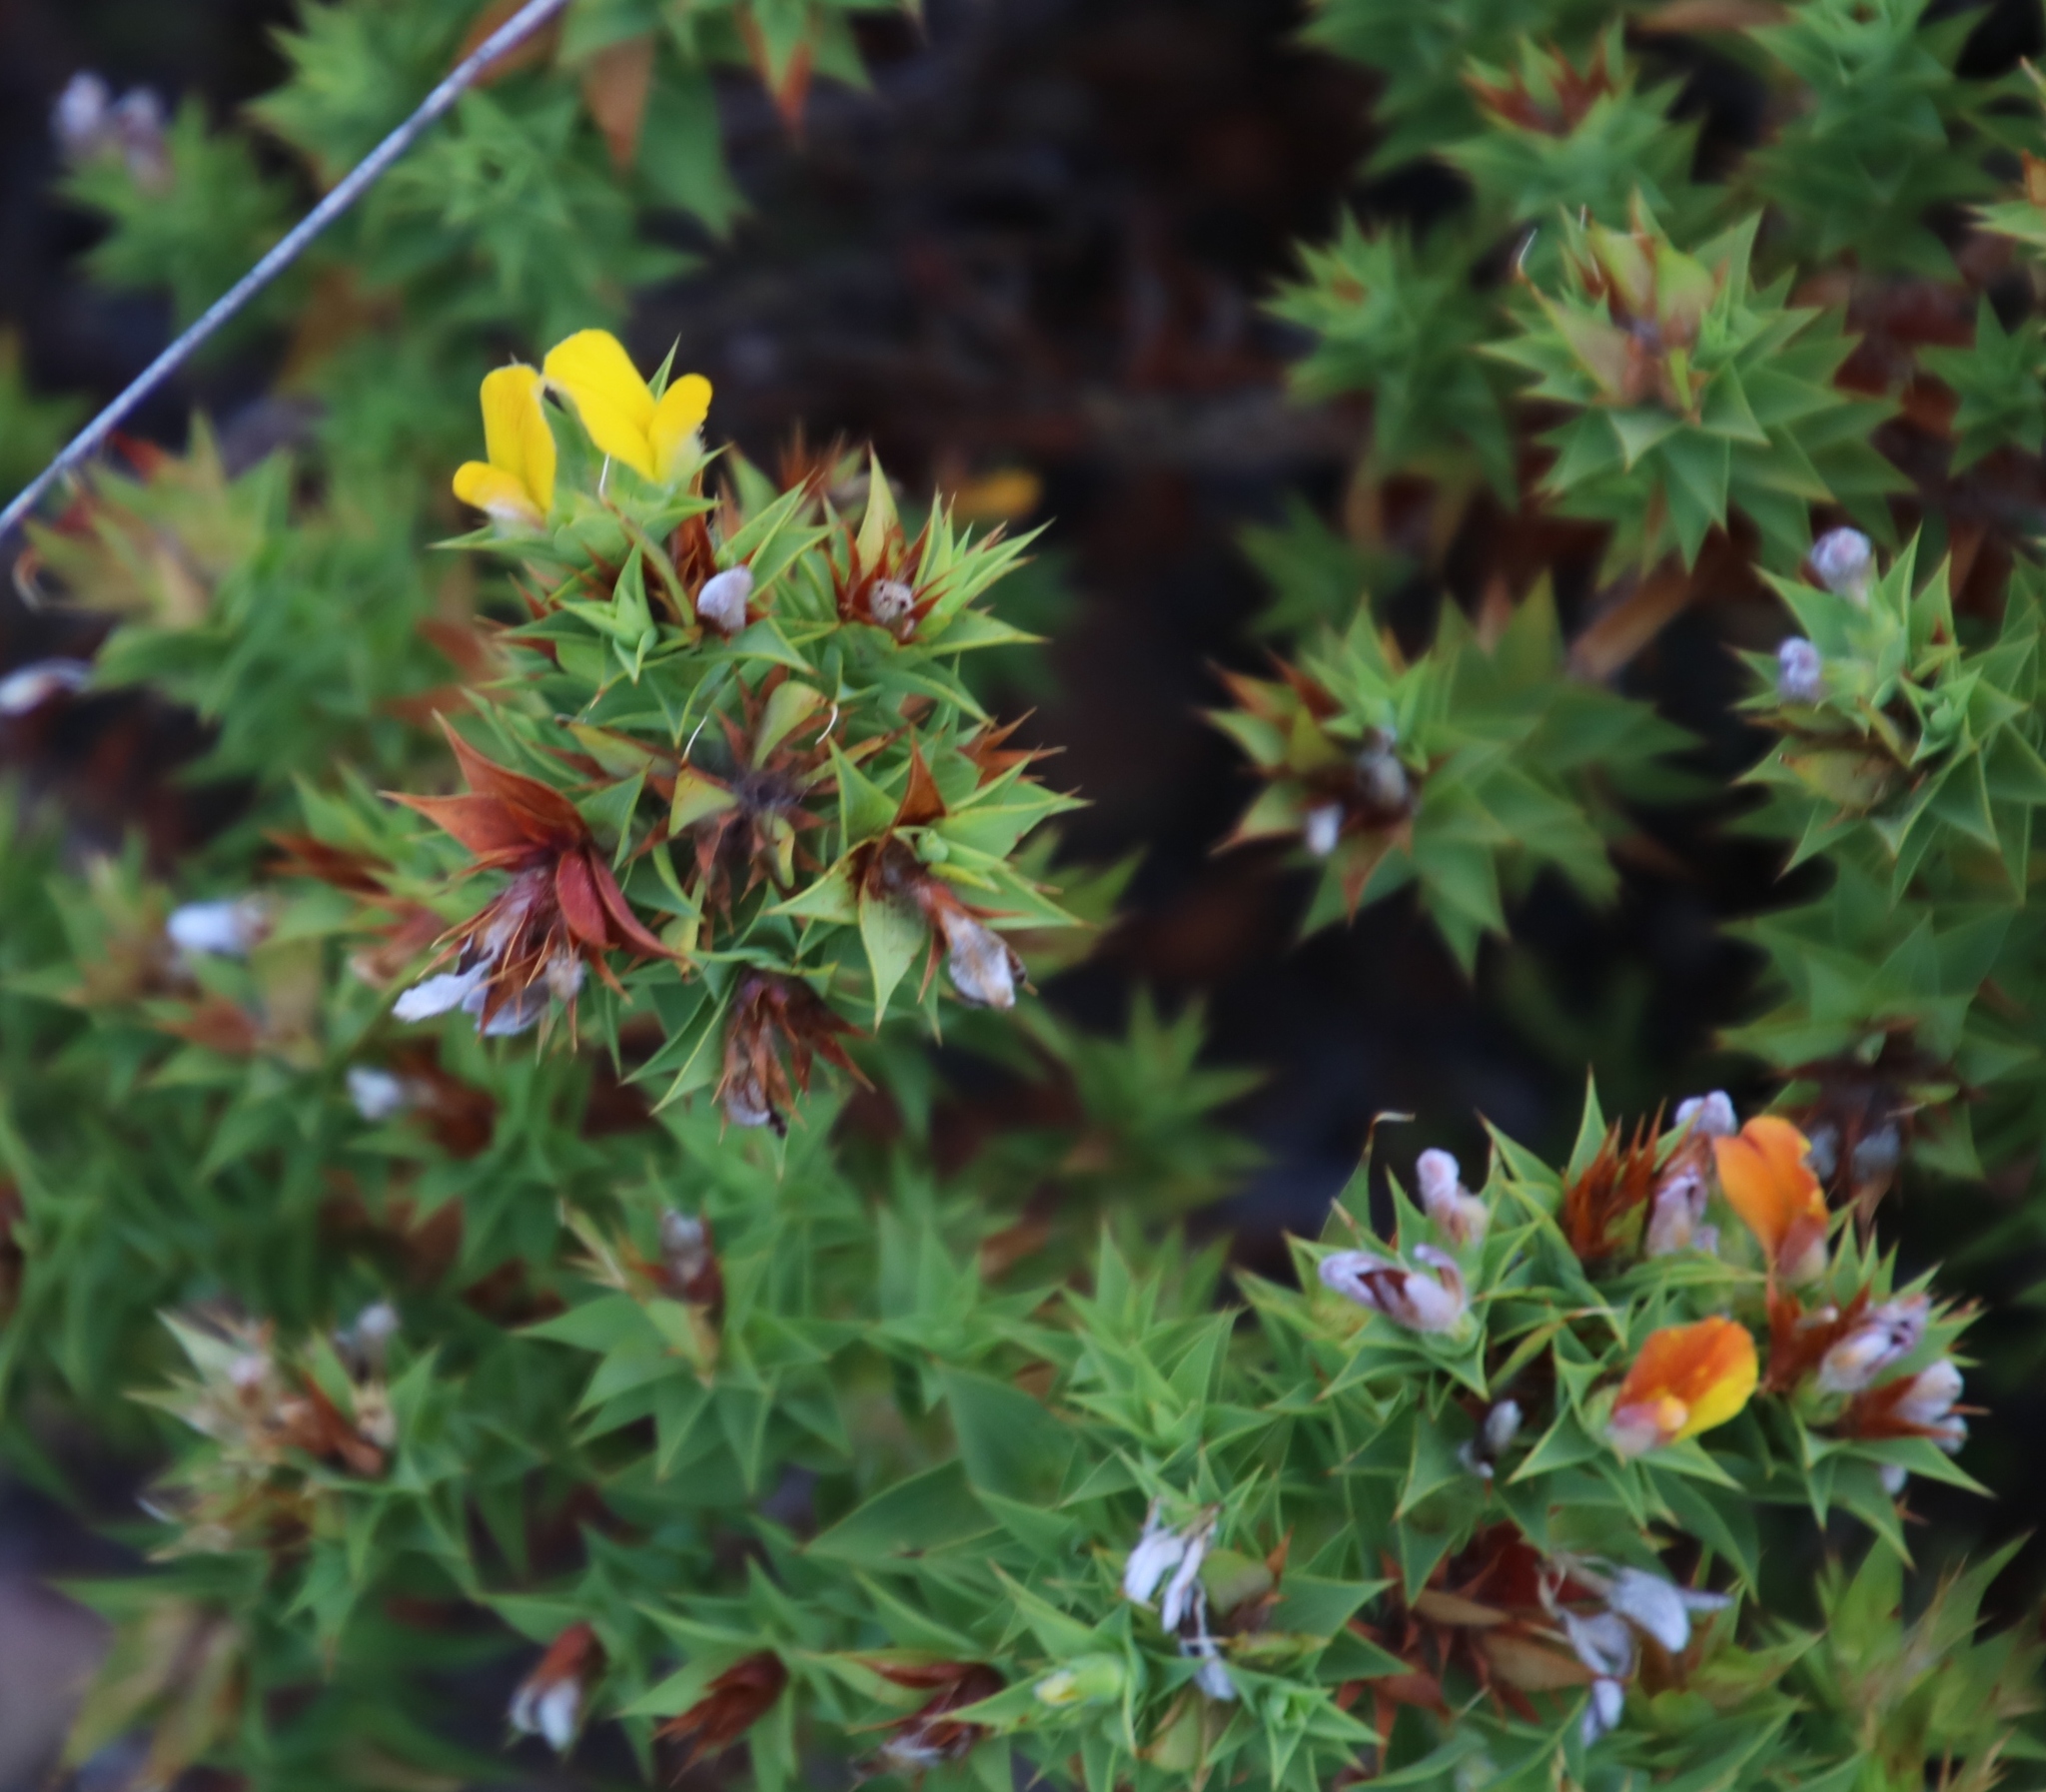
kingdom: Plantae
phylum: Tracheophyta
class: Magnoliopsida
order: Fabales
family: Fabaceae
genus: Aspalathus
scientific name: Aspalathus cordata
